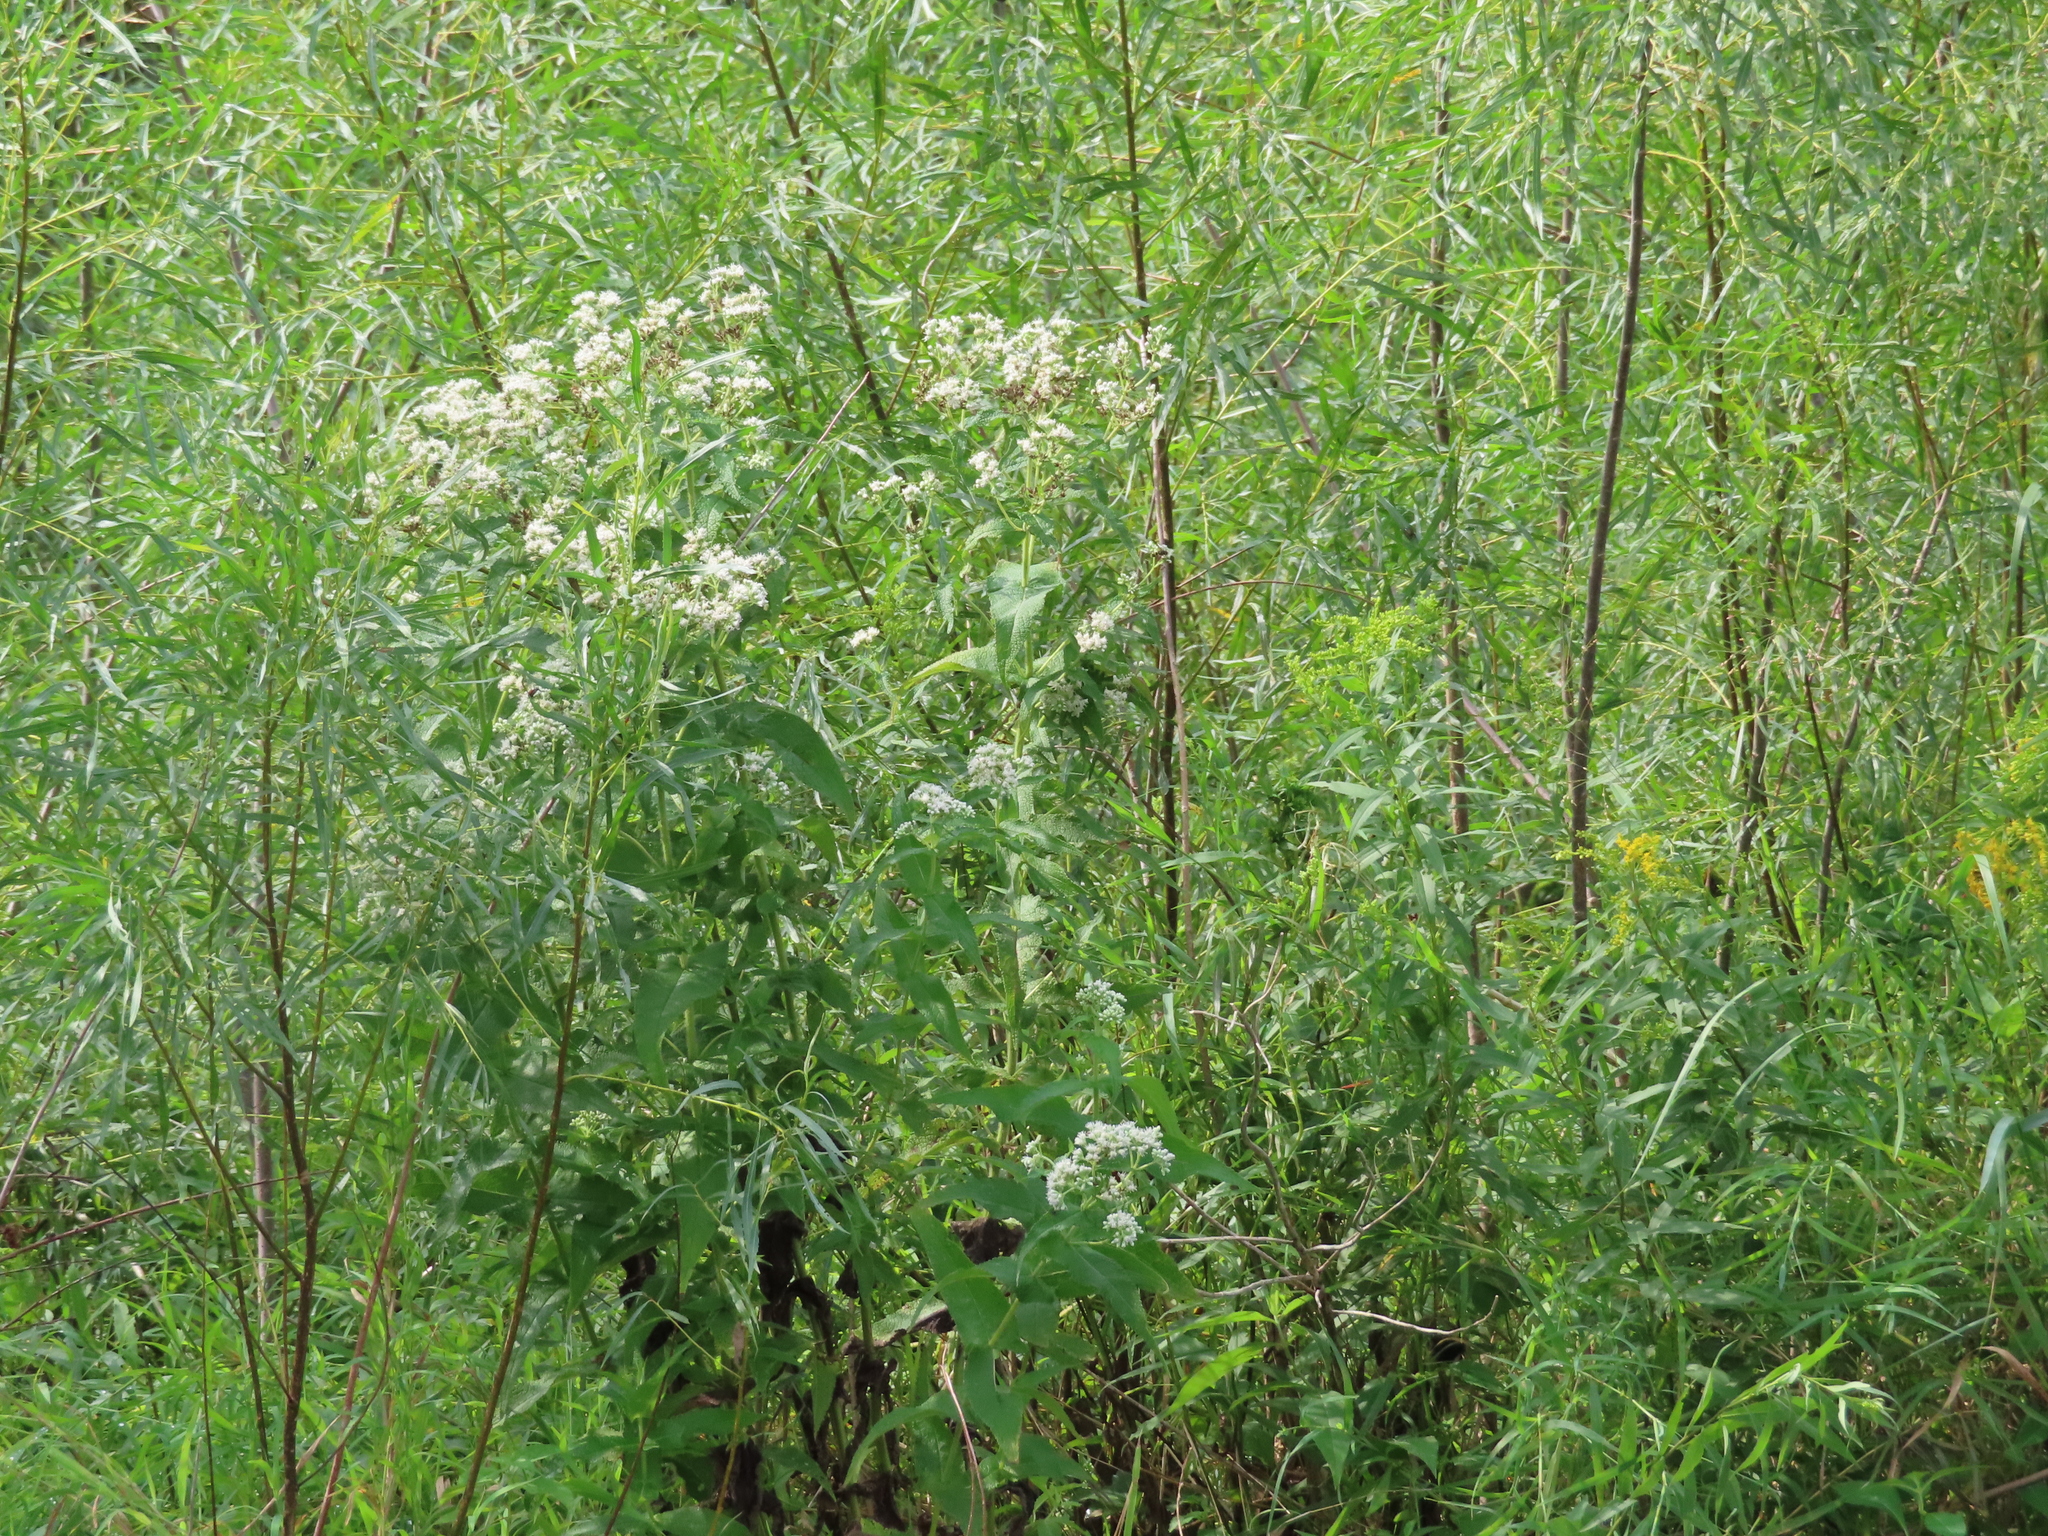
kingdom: Plantae
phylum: Tracheophyta
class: Magnoliopsida
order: Asterales
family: Asteraceae
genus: Eupatorium
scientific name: Eupatorium perfoliatum
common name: Boneset
